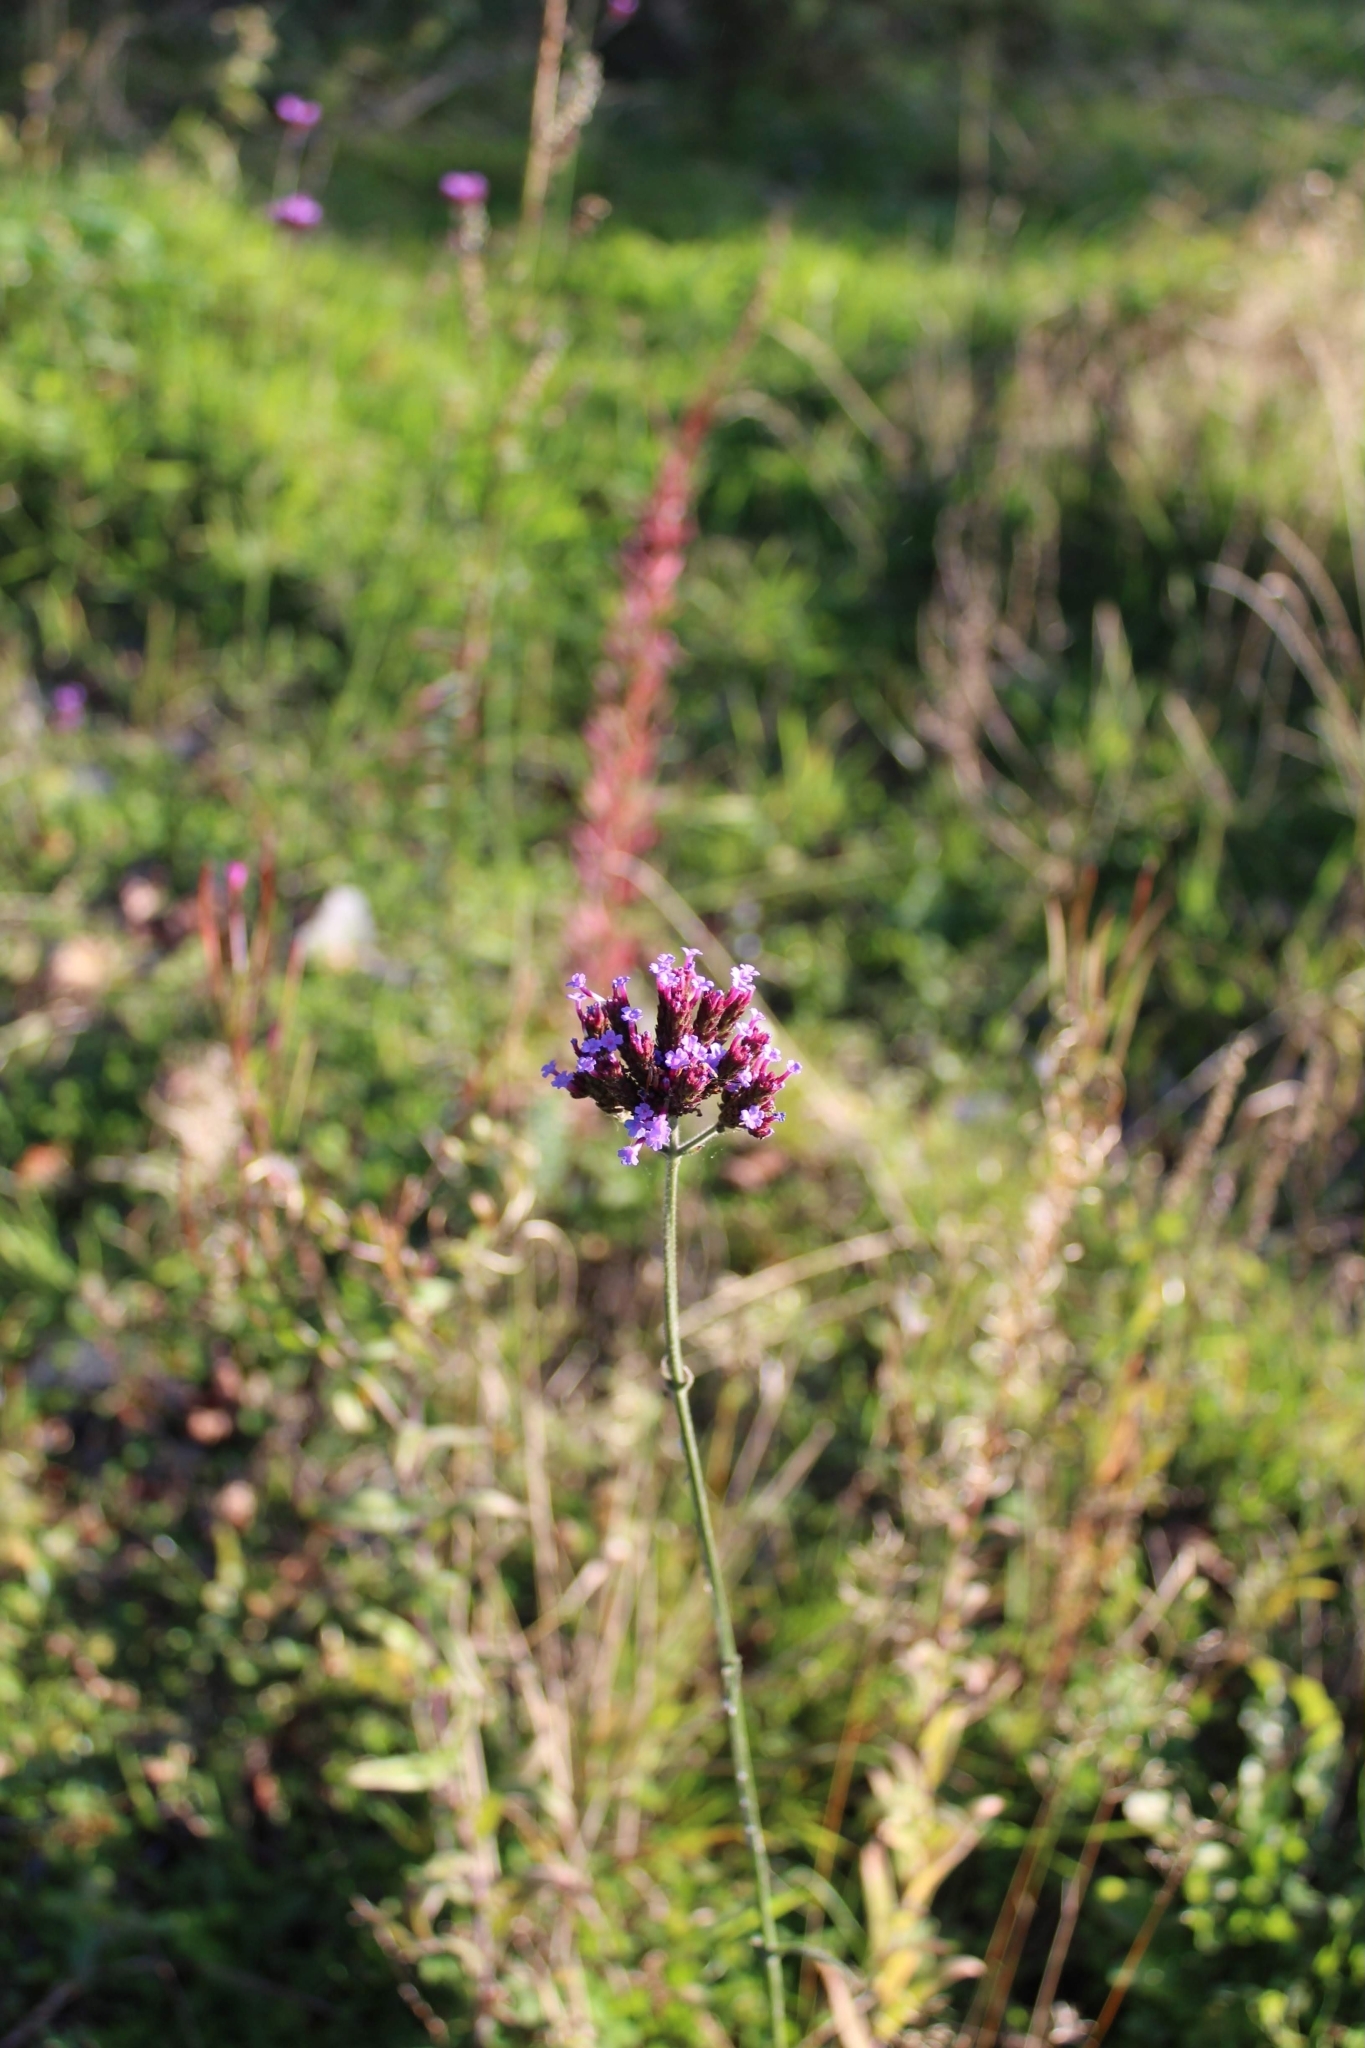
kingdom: Plantae
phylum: Tracheophyta
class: Magnoliopsida
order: Lamiales
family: Verbenaceae
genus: Verbena
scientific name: Verbena bonariensis
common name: Purpletop vervain
